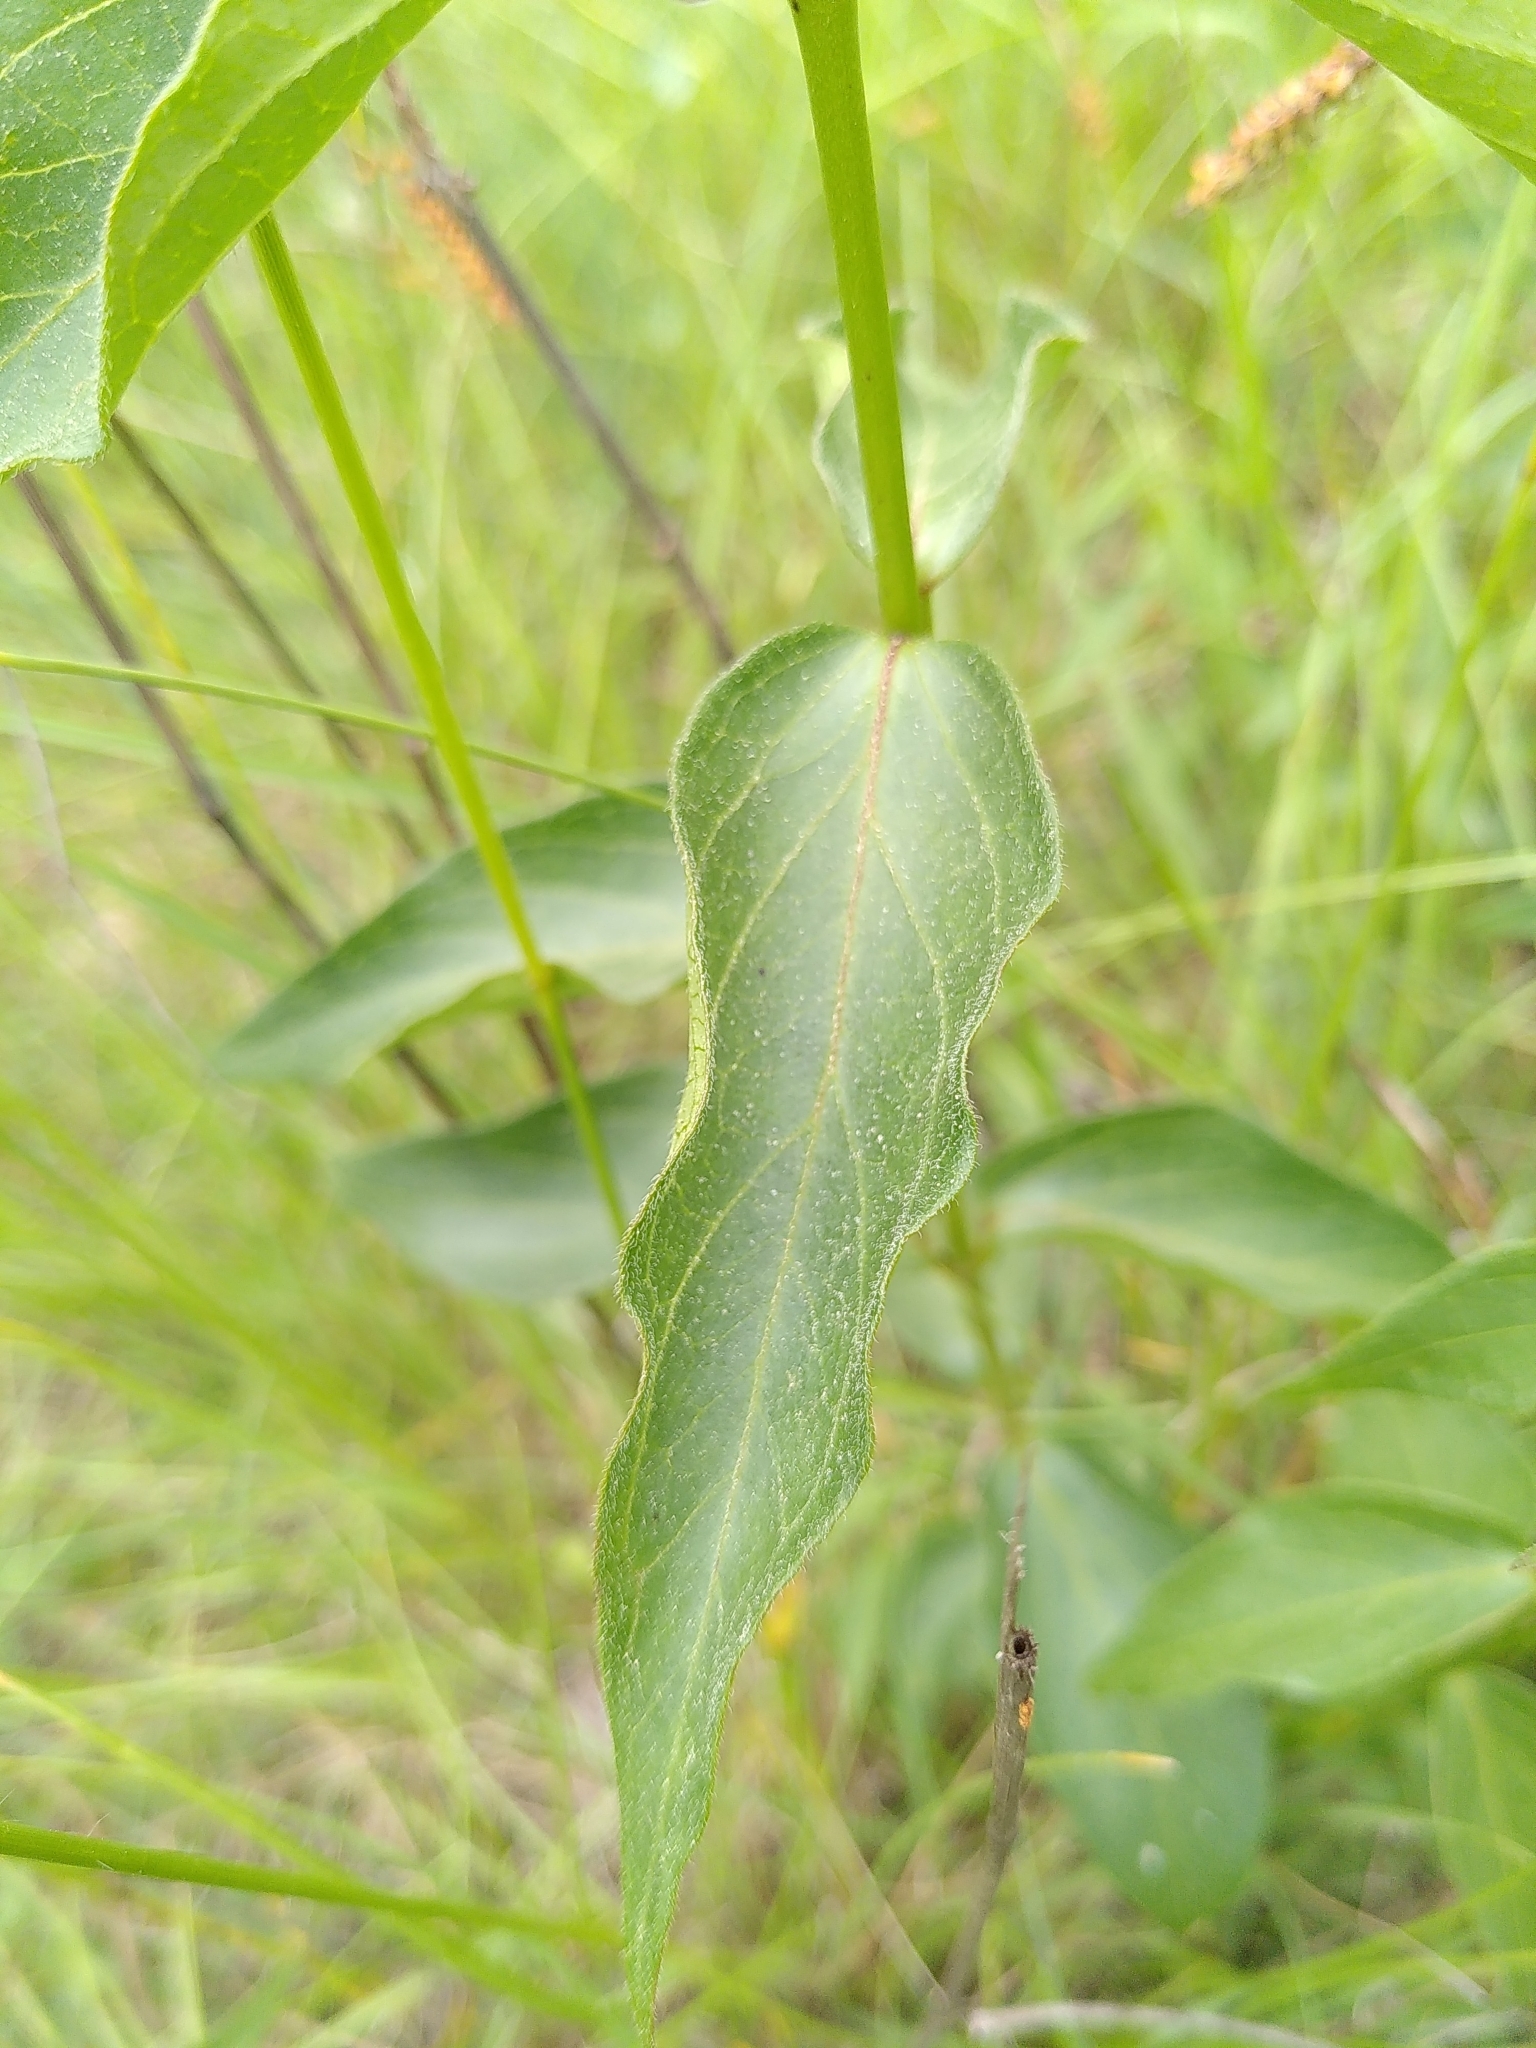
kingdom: Plantae
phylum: Tracheophyta
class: Magnoliopsida
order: Gentianales
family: Apocynaceae
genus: Vincetoxicum
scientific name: Vincetoxicum nigrum
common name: Black swallow-wort
